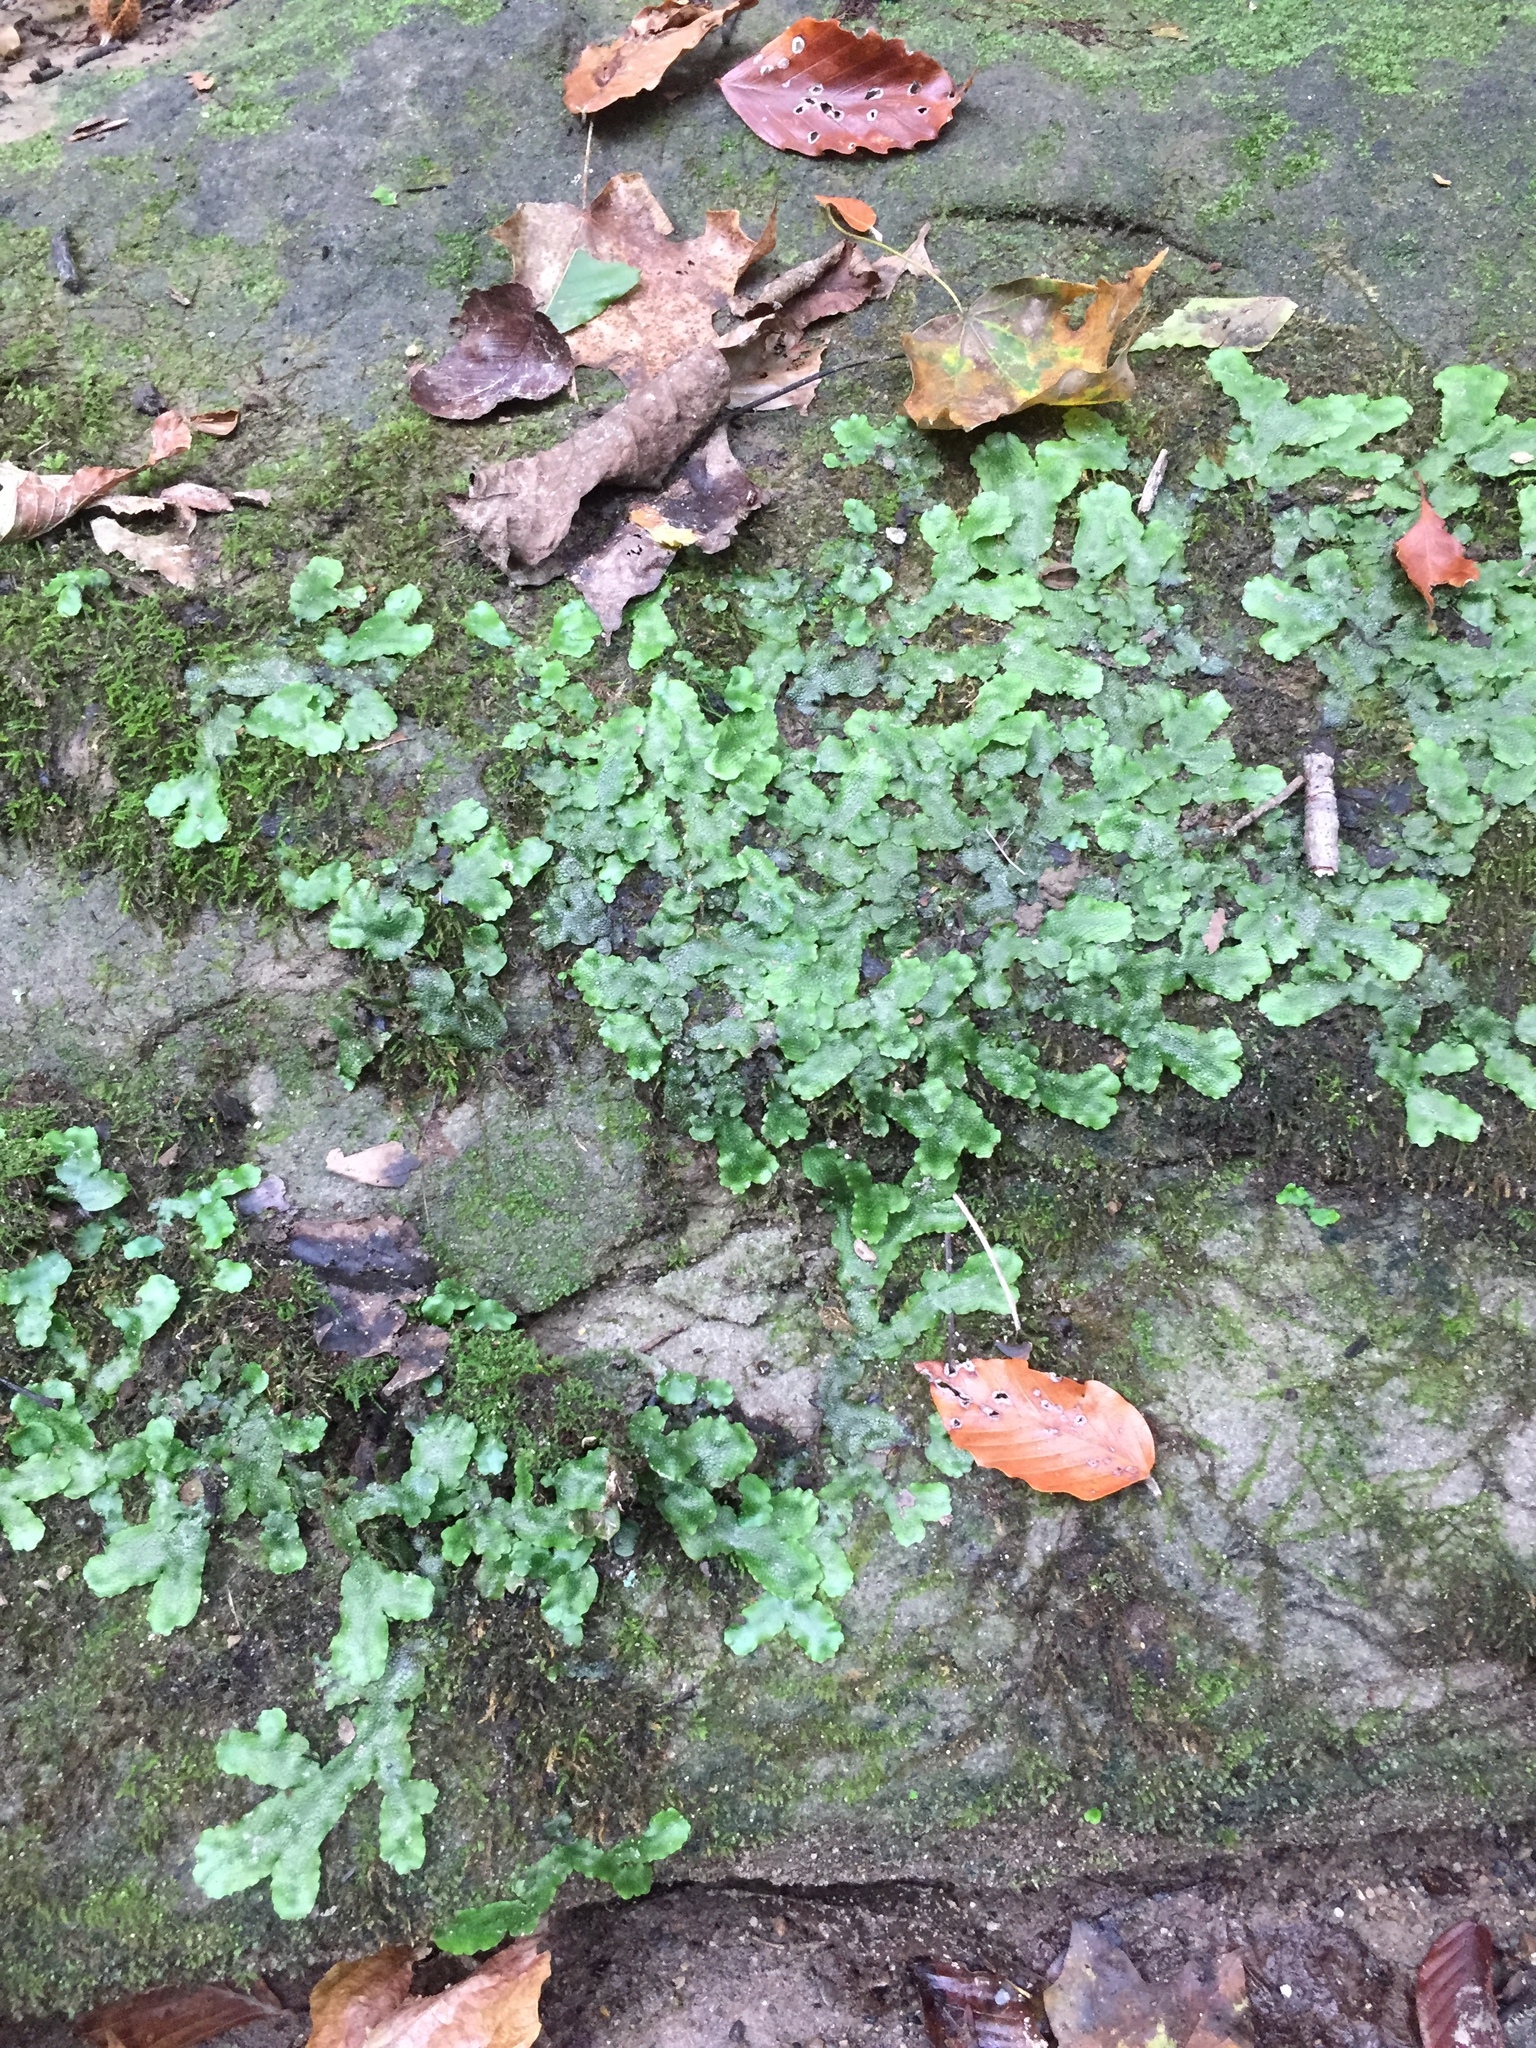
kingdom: Plantae
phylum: Marchantiophyta
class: Marchantiopsida
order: Marchantiales
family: Conocephalaceae
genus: Conocephalum
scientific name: Conocephalum salebrosum
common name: Cat-tongue liverwort
